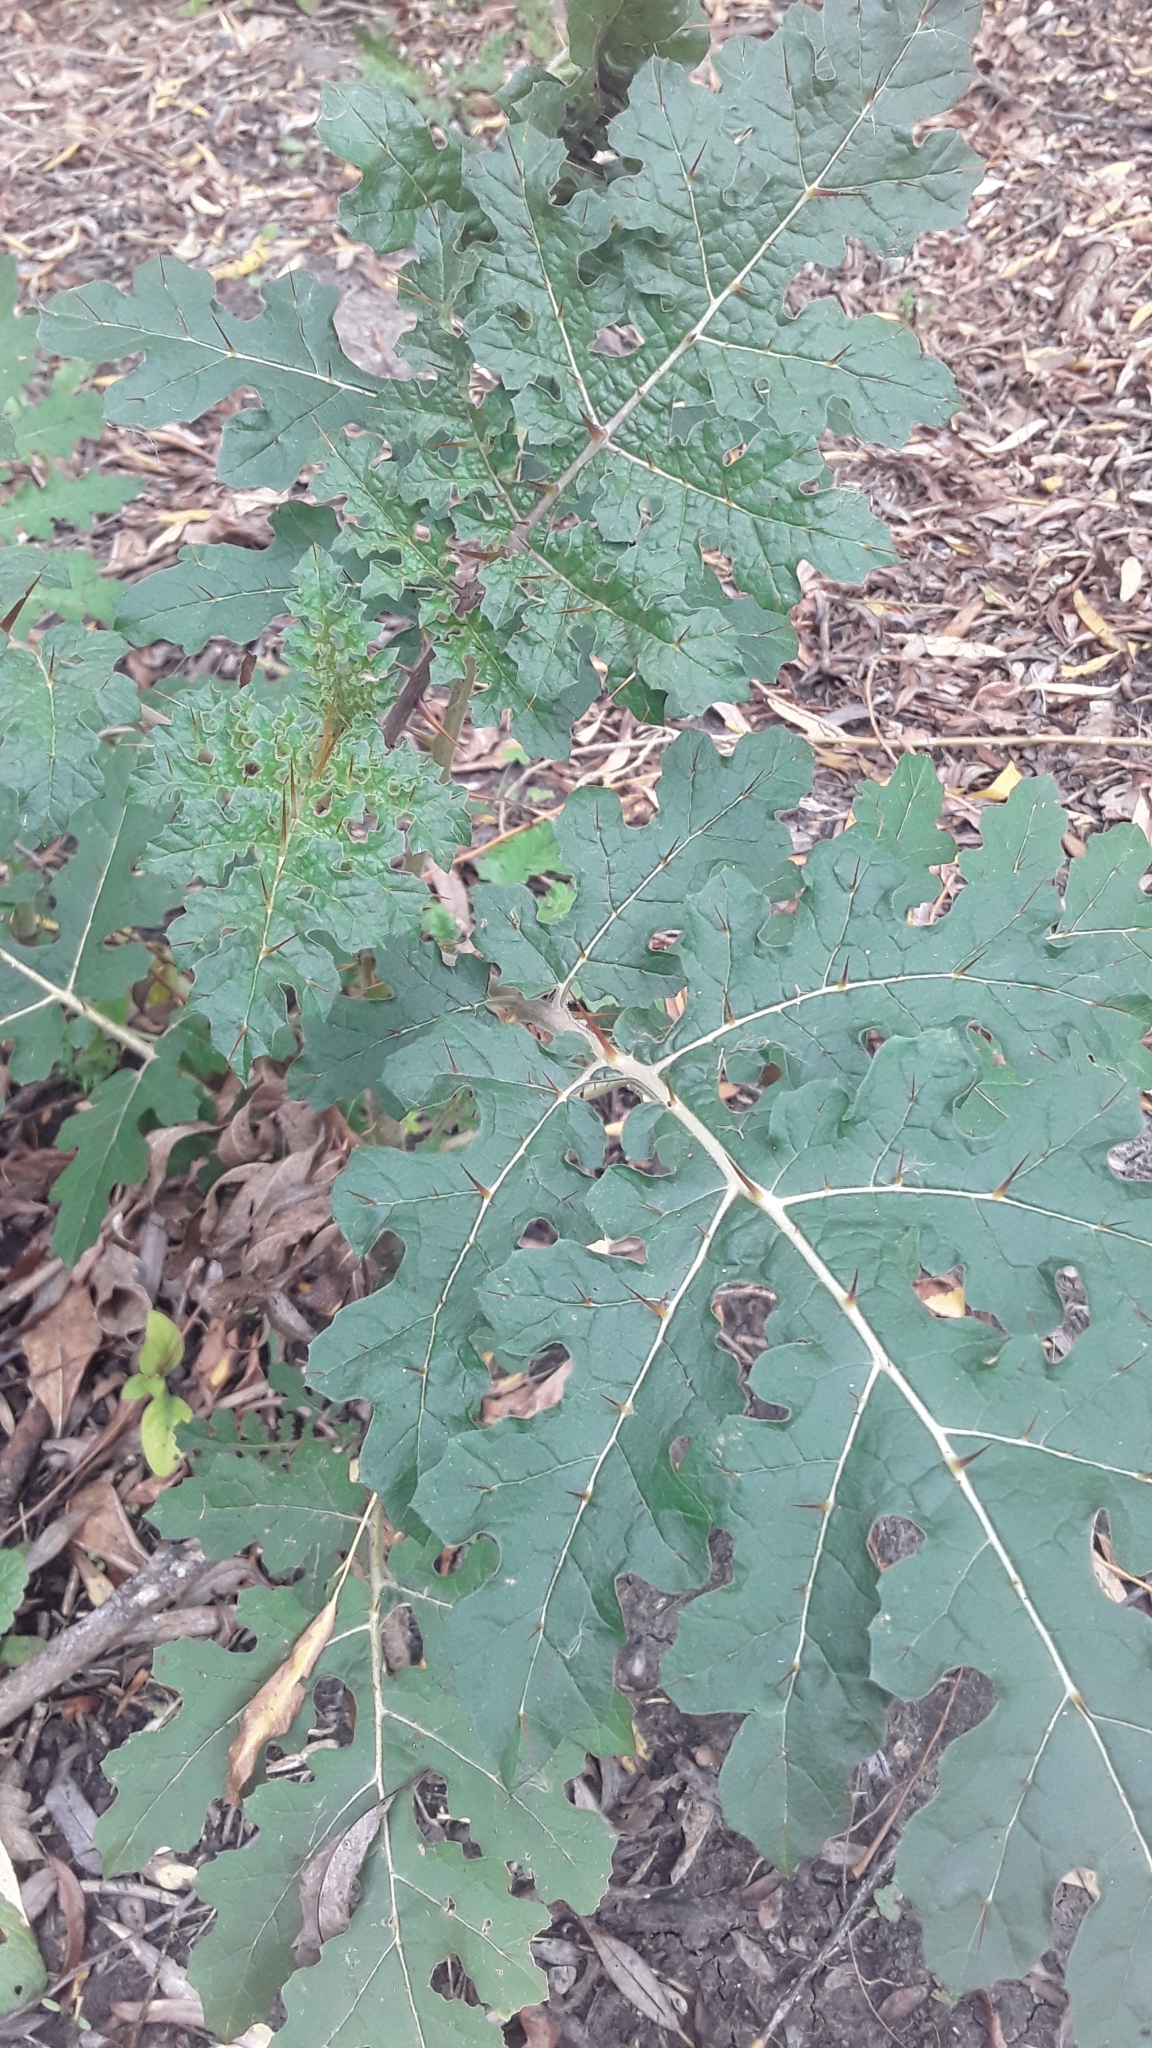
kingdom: Plantae
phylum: Tracheophyta
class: Magnoliopsida
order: Solanales
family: Solanaceae
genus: Solanum
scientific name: Solanum sisymbriifolium
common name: Red buffalo-bur
